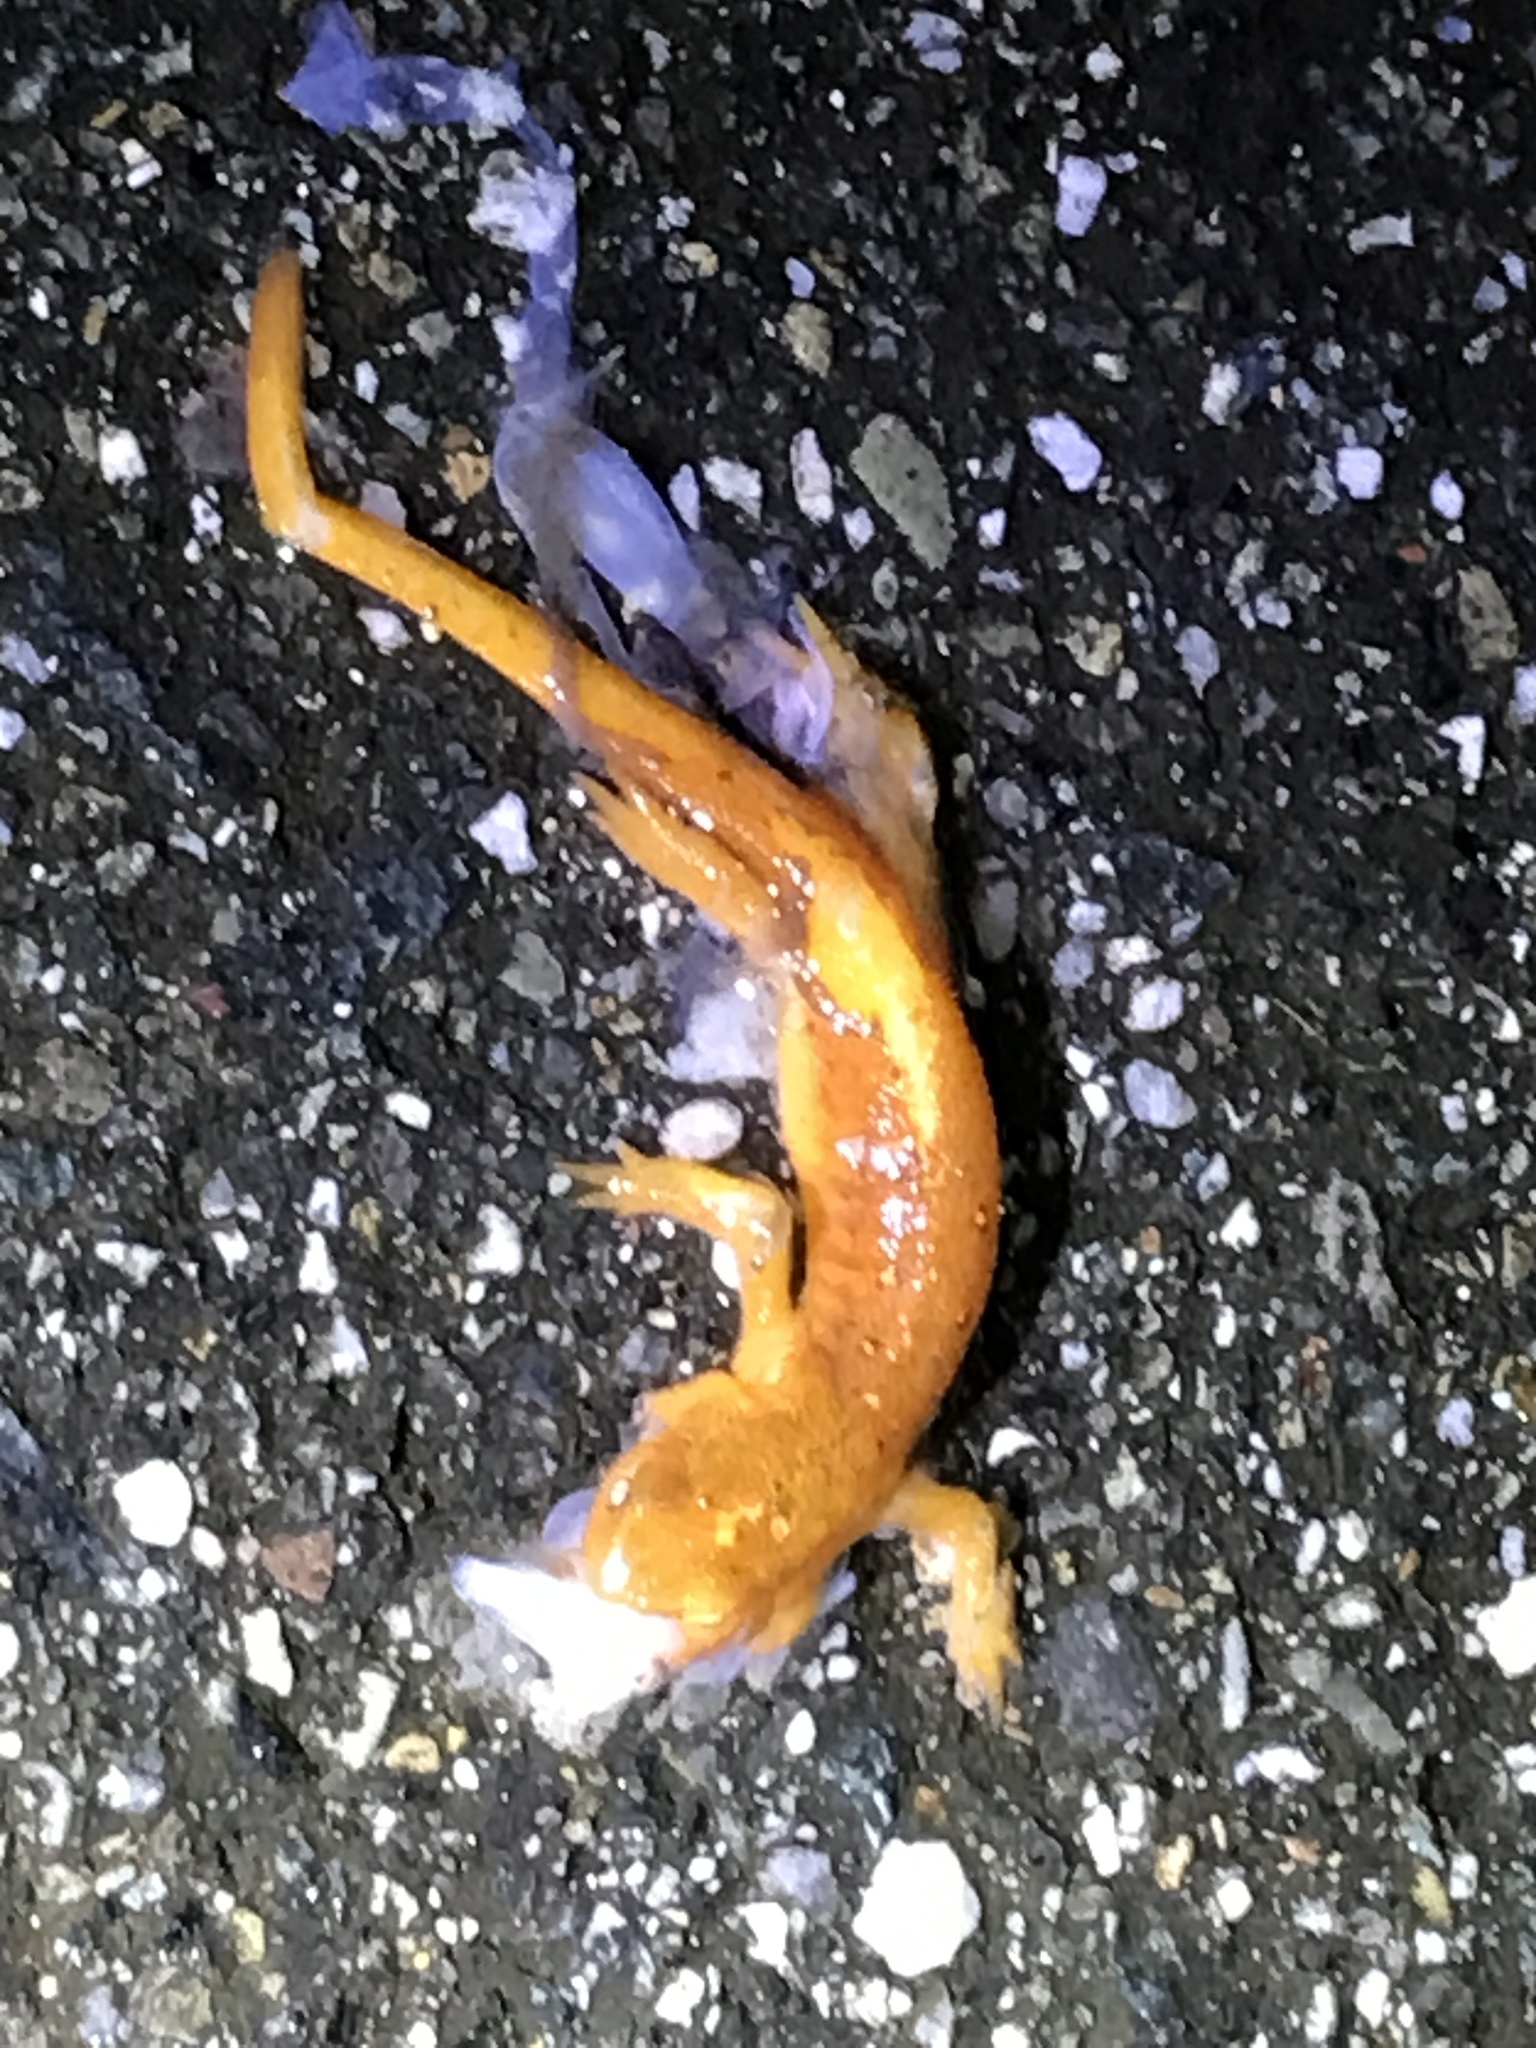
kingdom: Animalia
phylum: Chordata
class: Amphibia
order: Caudata
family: Salamandridae
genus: Notophthalmus
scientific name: Notophthalmus viridescens
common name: Eastern newt
